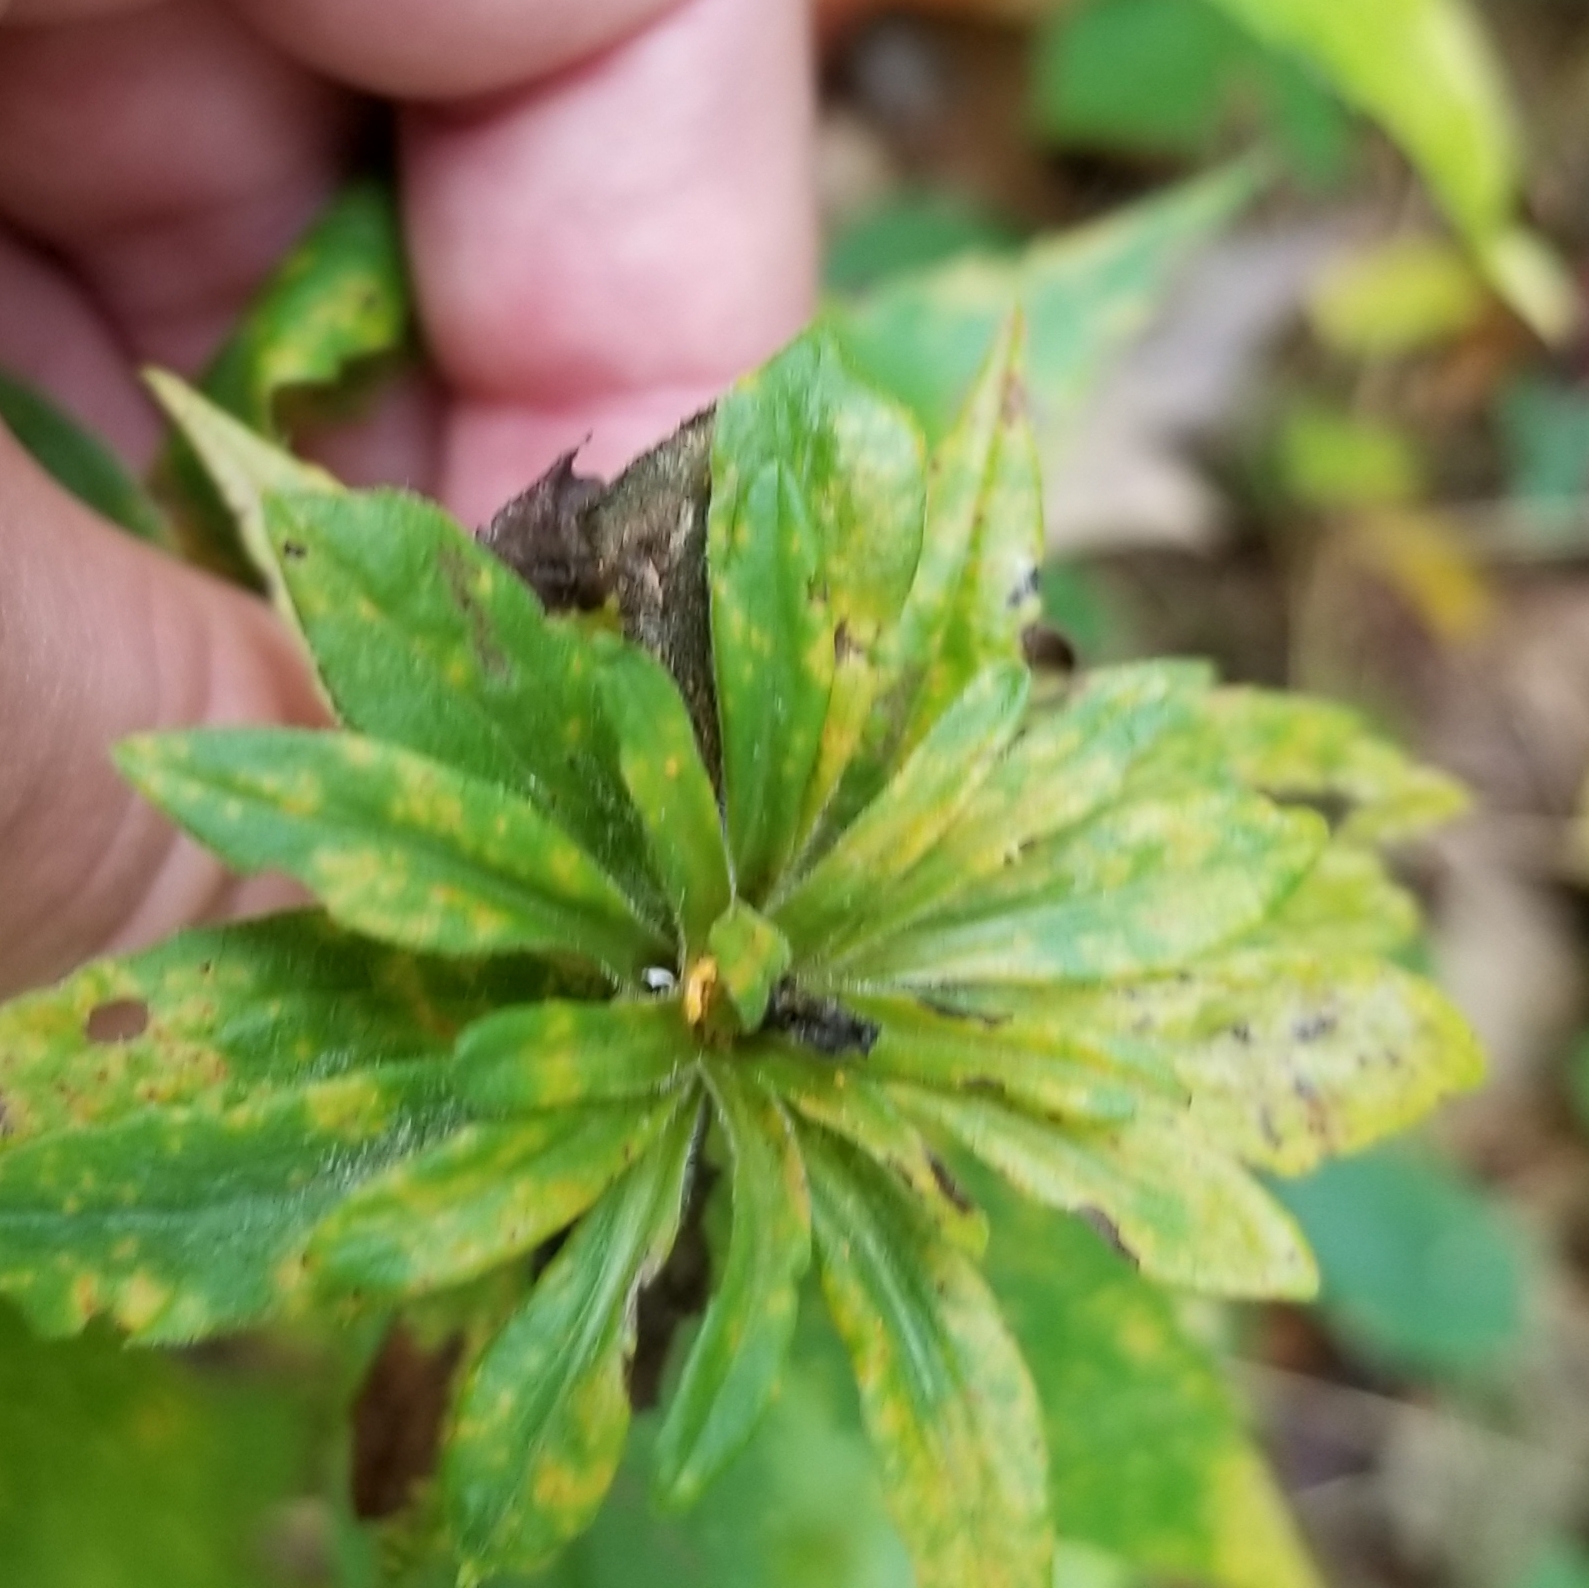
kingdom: Plantae
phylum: Tracheophyta
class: Magnoliopsida
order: Asterales
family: Asteraceae
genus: Solidago
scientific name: Solidago rugosa
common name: Rough-stemmed goldenrod
